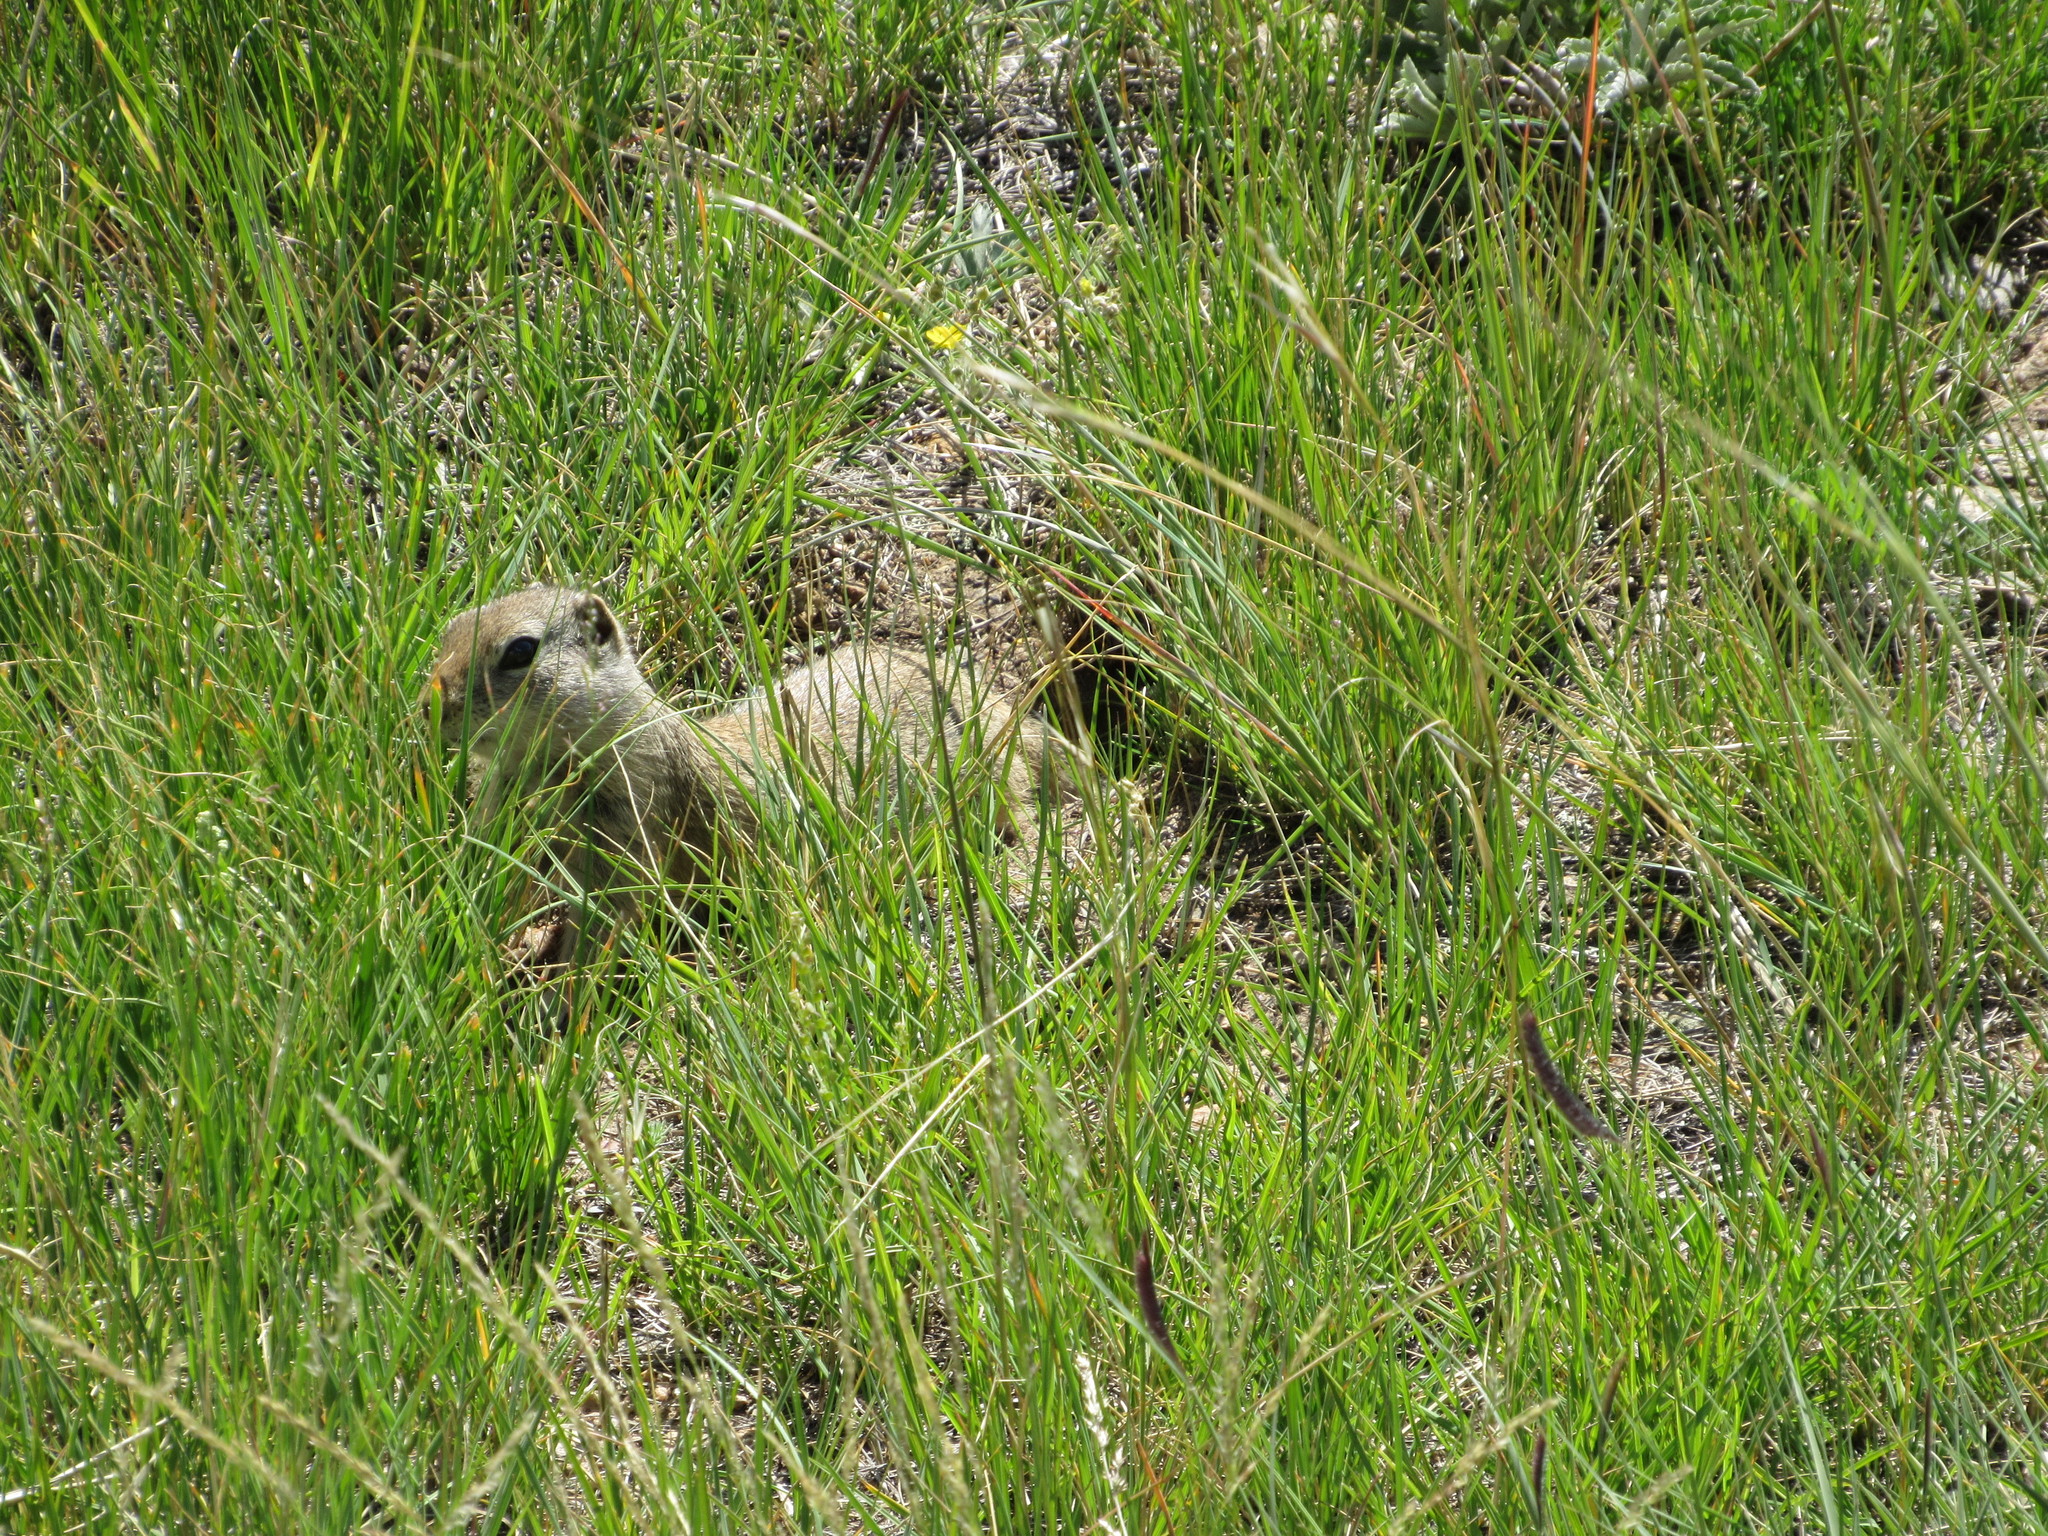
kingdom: Animalia
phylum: Chordata
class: Mammalia
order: Rodentia
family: Sciuridae
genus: Urocitellus
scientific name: Urocitellus elegans
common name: Wyoming ground squirrel
